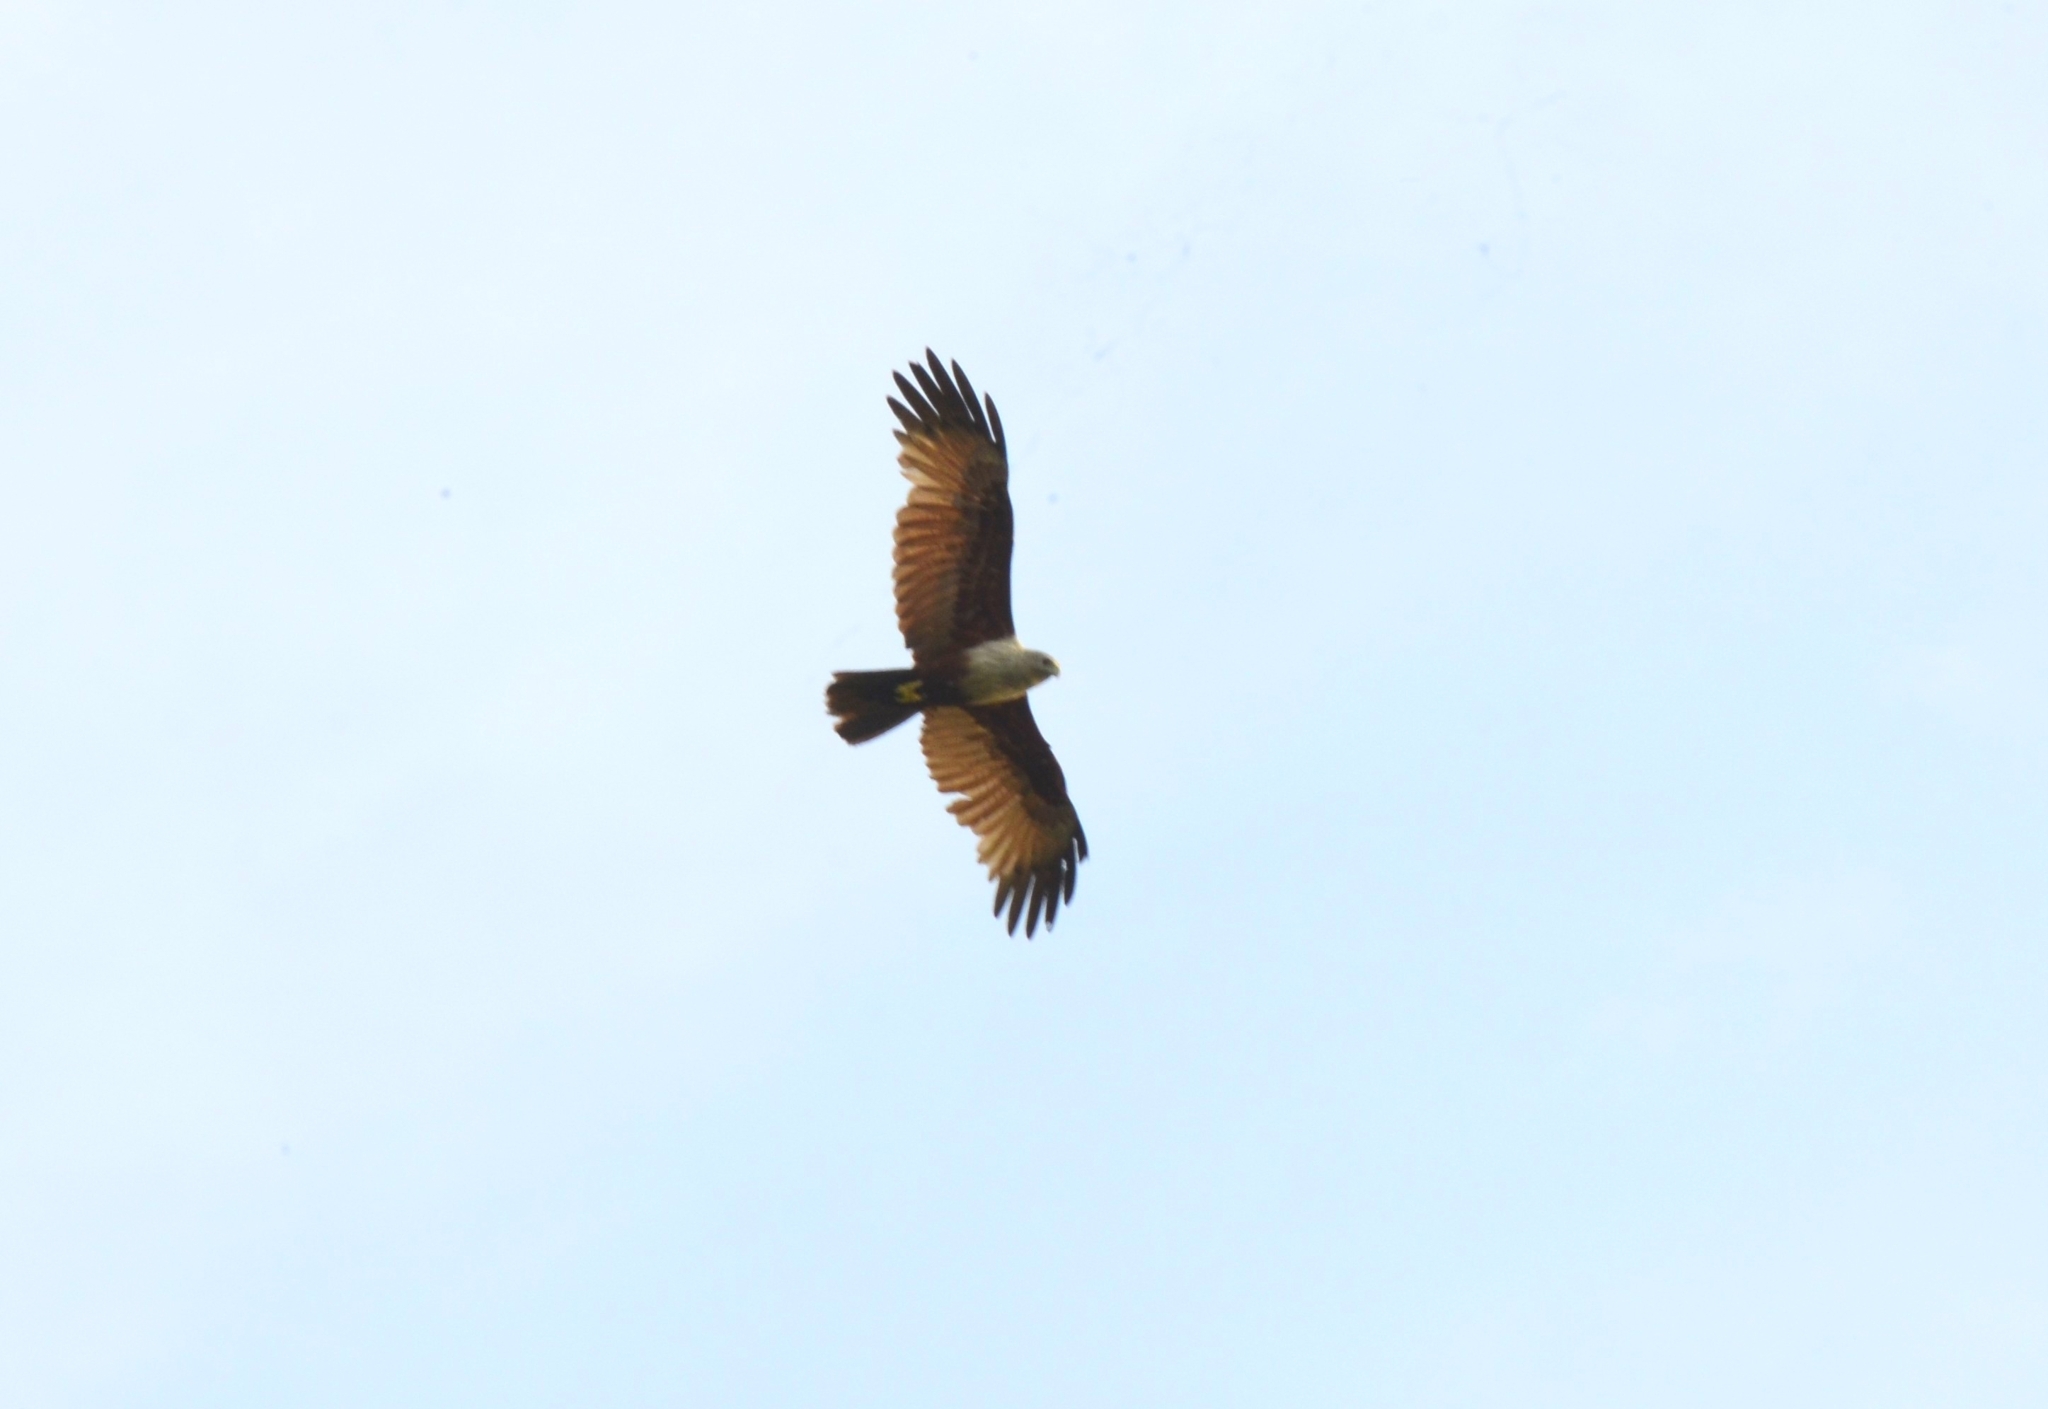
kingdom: Animalia
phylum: Chordata
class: Aves
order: Accipitriformes
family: Accipitridae
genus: Haliastur
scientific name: Haliastur indus
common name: Brahminy kite
